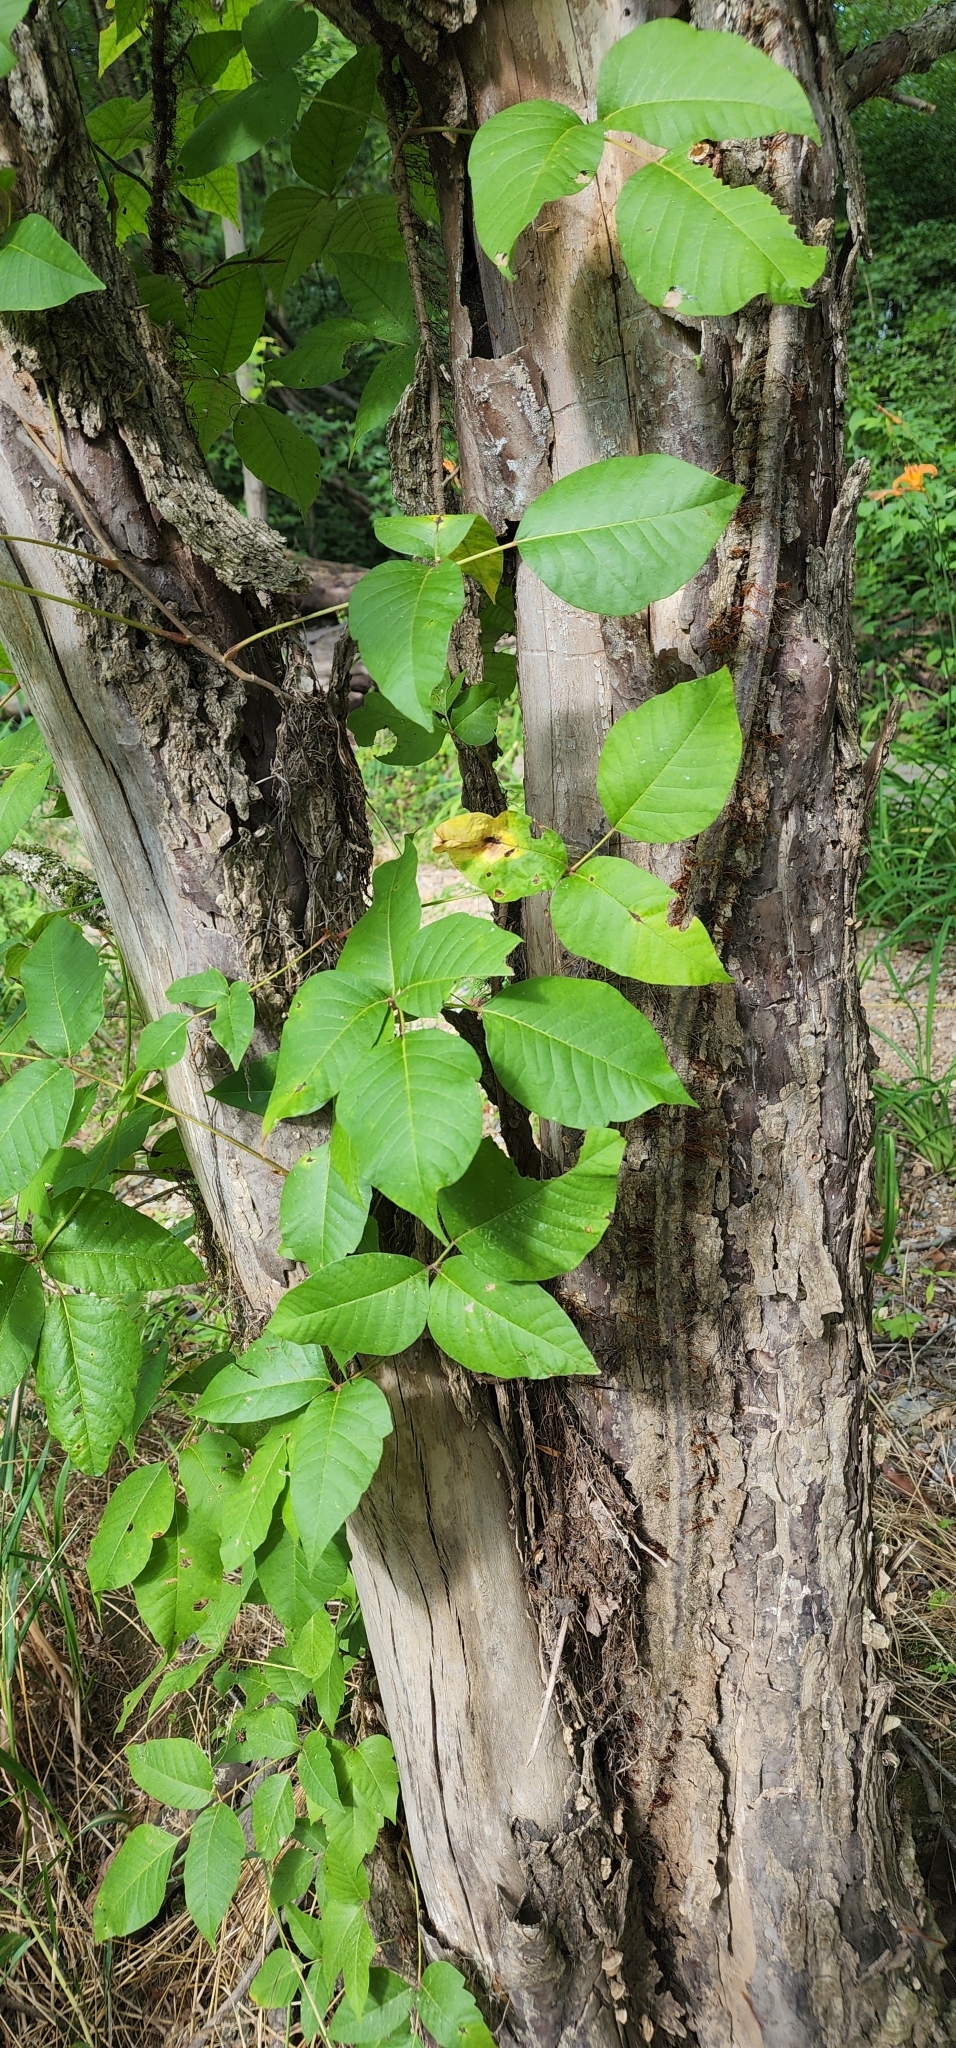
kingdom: Animalia
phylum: Arthropoda
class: Insecta
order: Hymenoptera
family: Ichneumonidae
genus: Megarhyssa
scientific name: Megarhyssa atrata
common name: Black giant ichneumonid wasp
